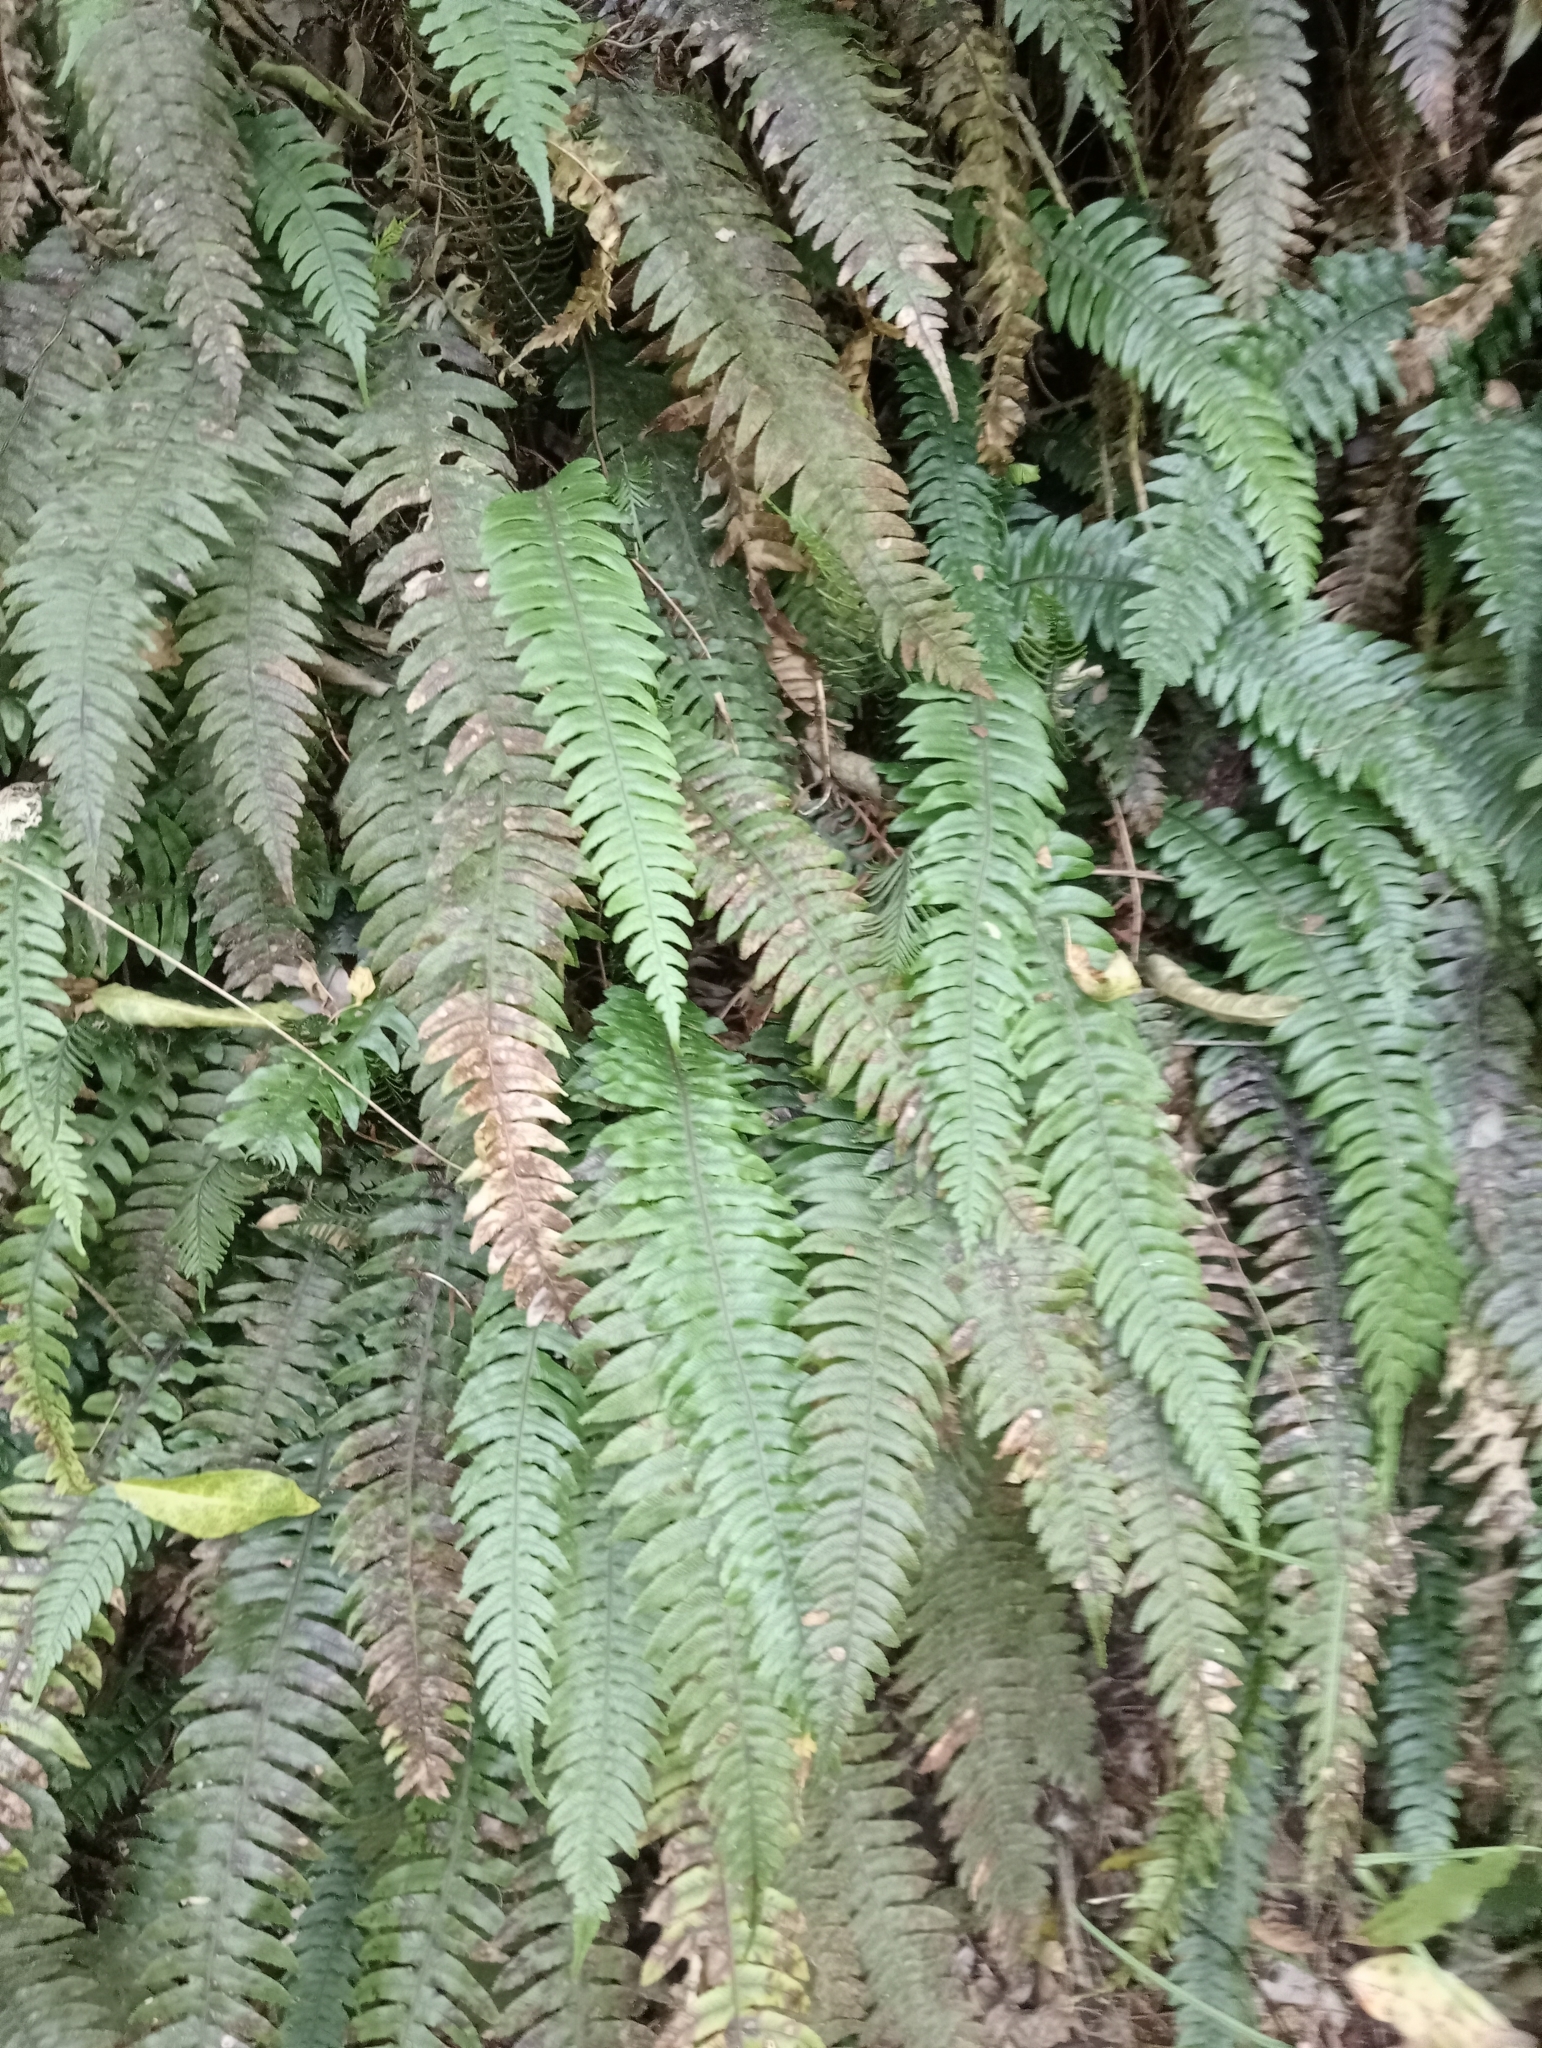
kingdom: Plantae
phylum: Tracheophyta
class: Polypodiopsida
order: Polypodiales
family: Blechnaceae
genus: Austroblechnum
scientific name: Austroblechnum lanceolatum
